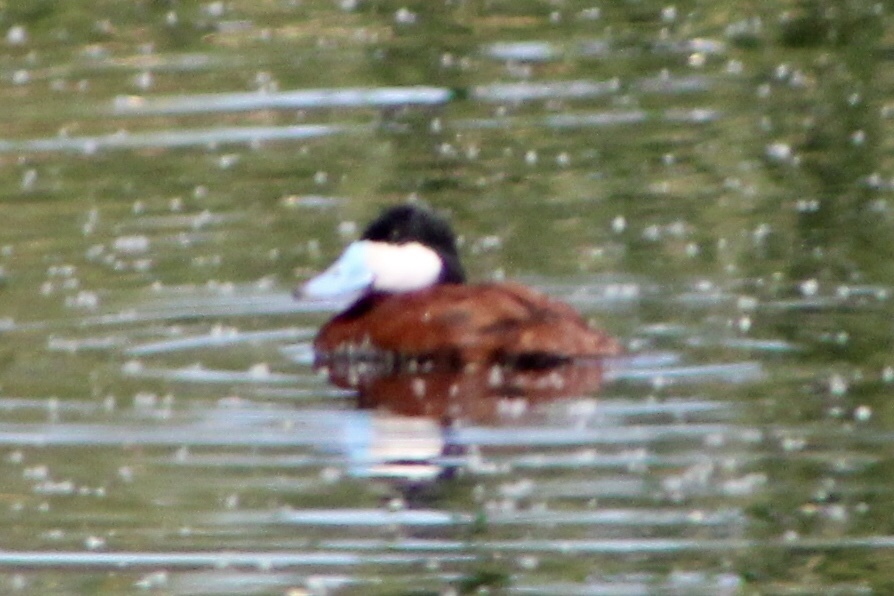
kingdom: Animalia
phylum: Chordata
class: Aves
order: Anseriformes
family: Anatidae
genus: Oxyura
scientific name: Oxyura jamaicensis
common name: Ruddy duck
